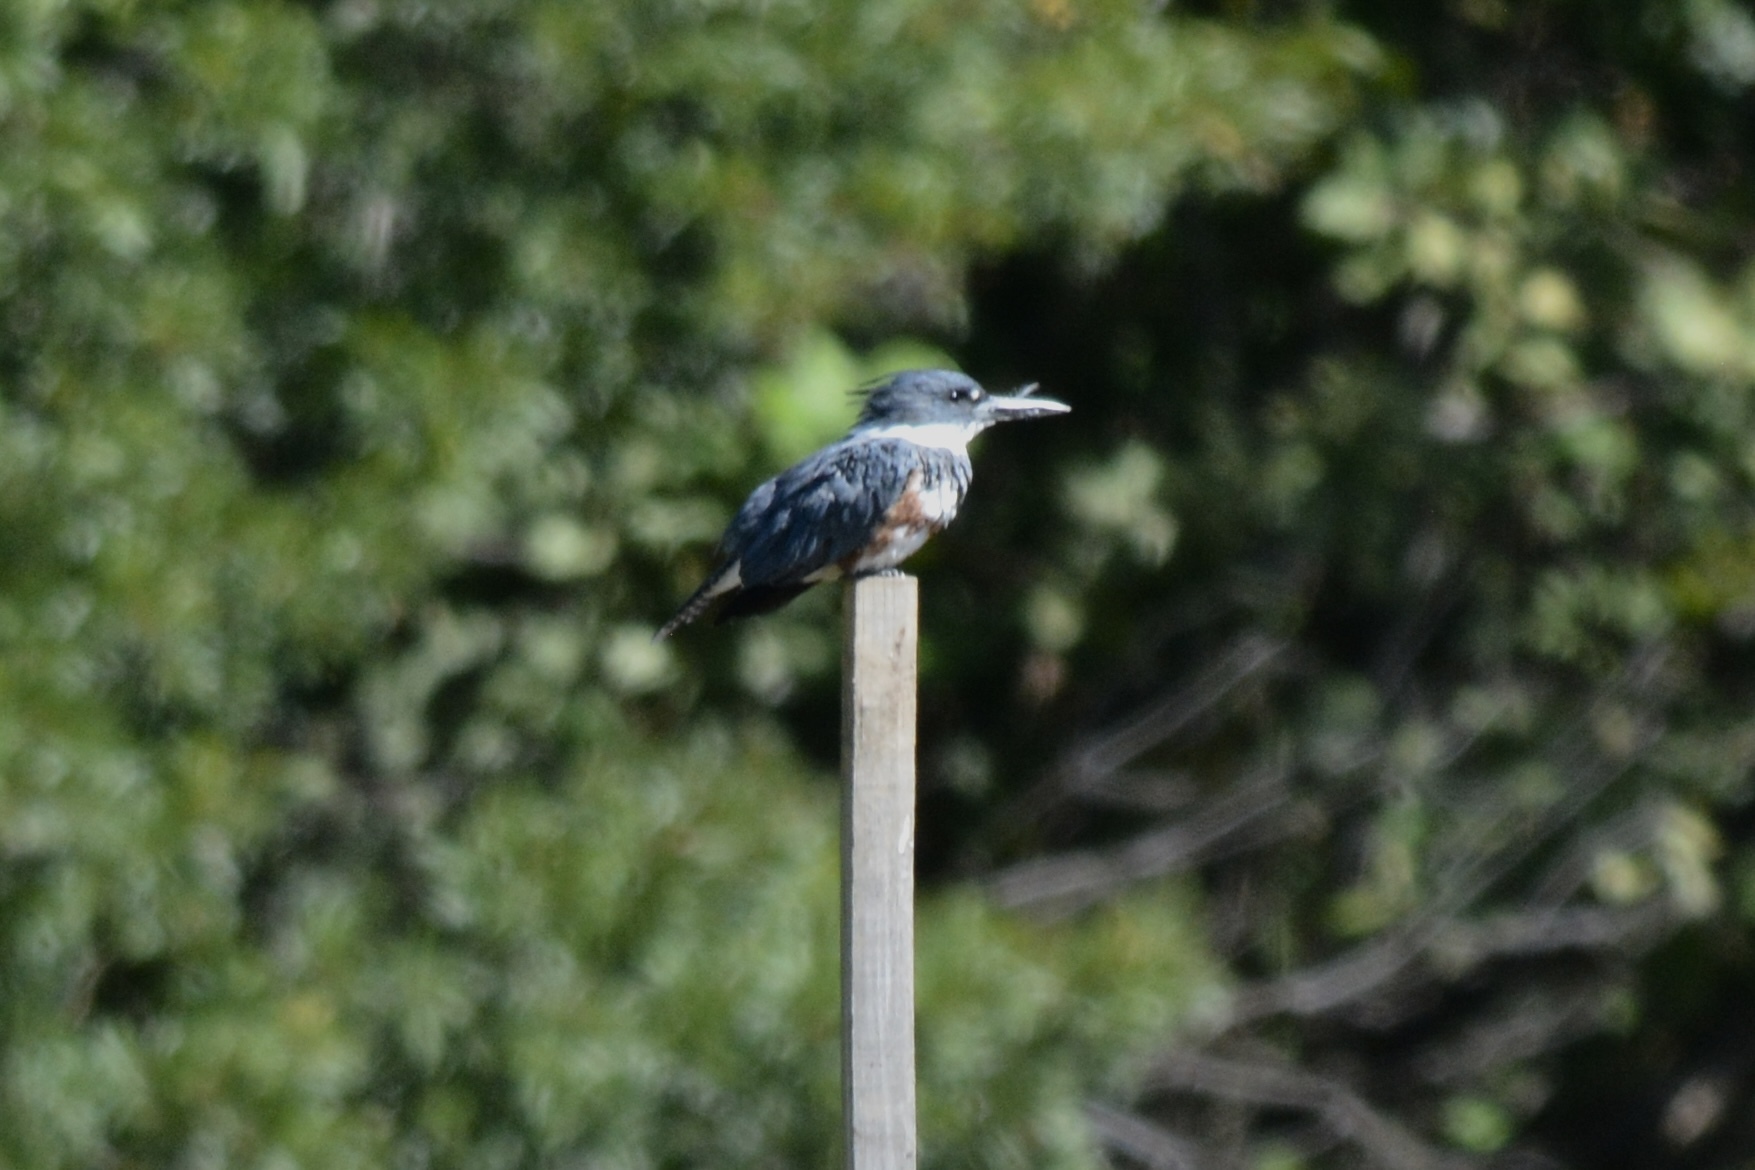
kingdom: Animalia
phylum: Chordata
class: Aves
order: Coraciiformes
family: Alcedinidae
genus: Megaceryle
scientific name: Megaceryle alcyon
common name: Belted kingfisher
